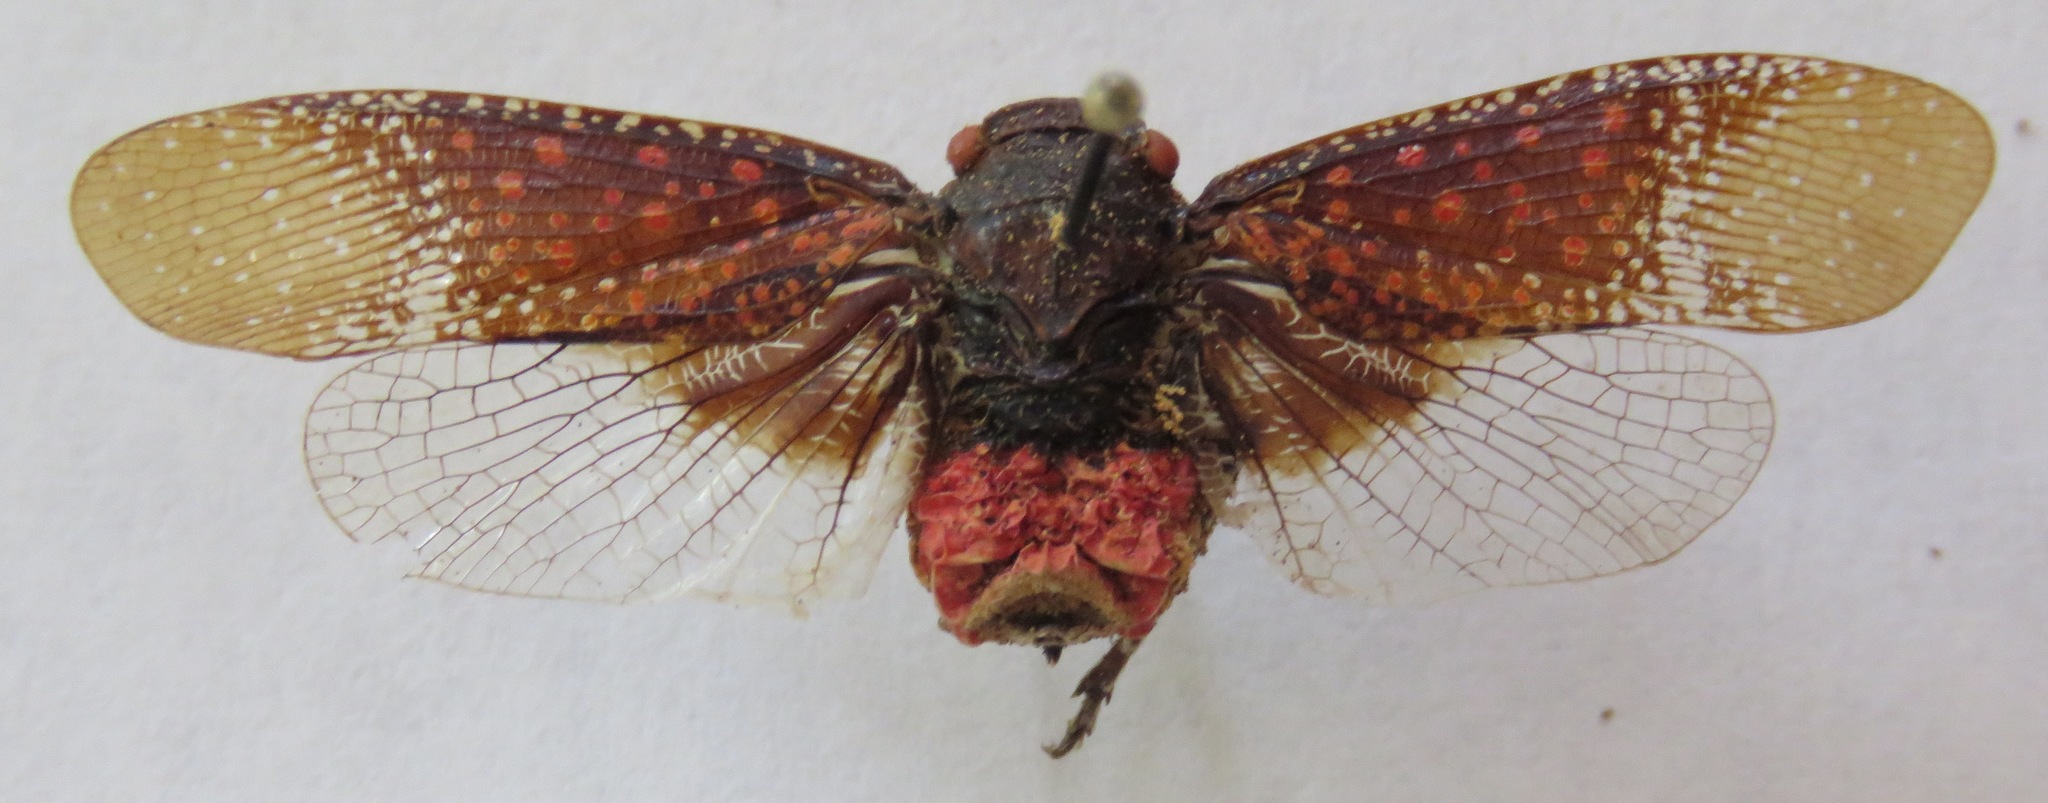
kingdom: Animalia
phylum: Arthropoda
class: Insecta
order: Hemiptera
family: Fulgoridae
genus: Alaruasa
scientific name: Alaruasa
